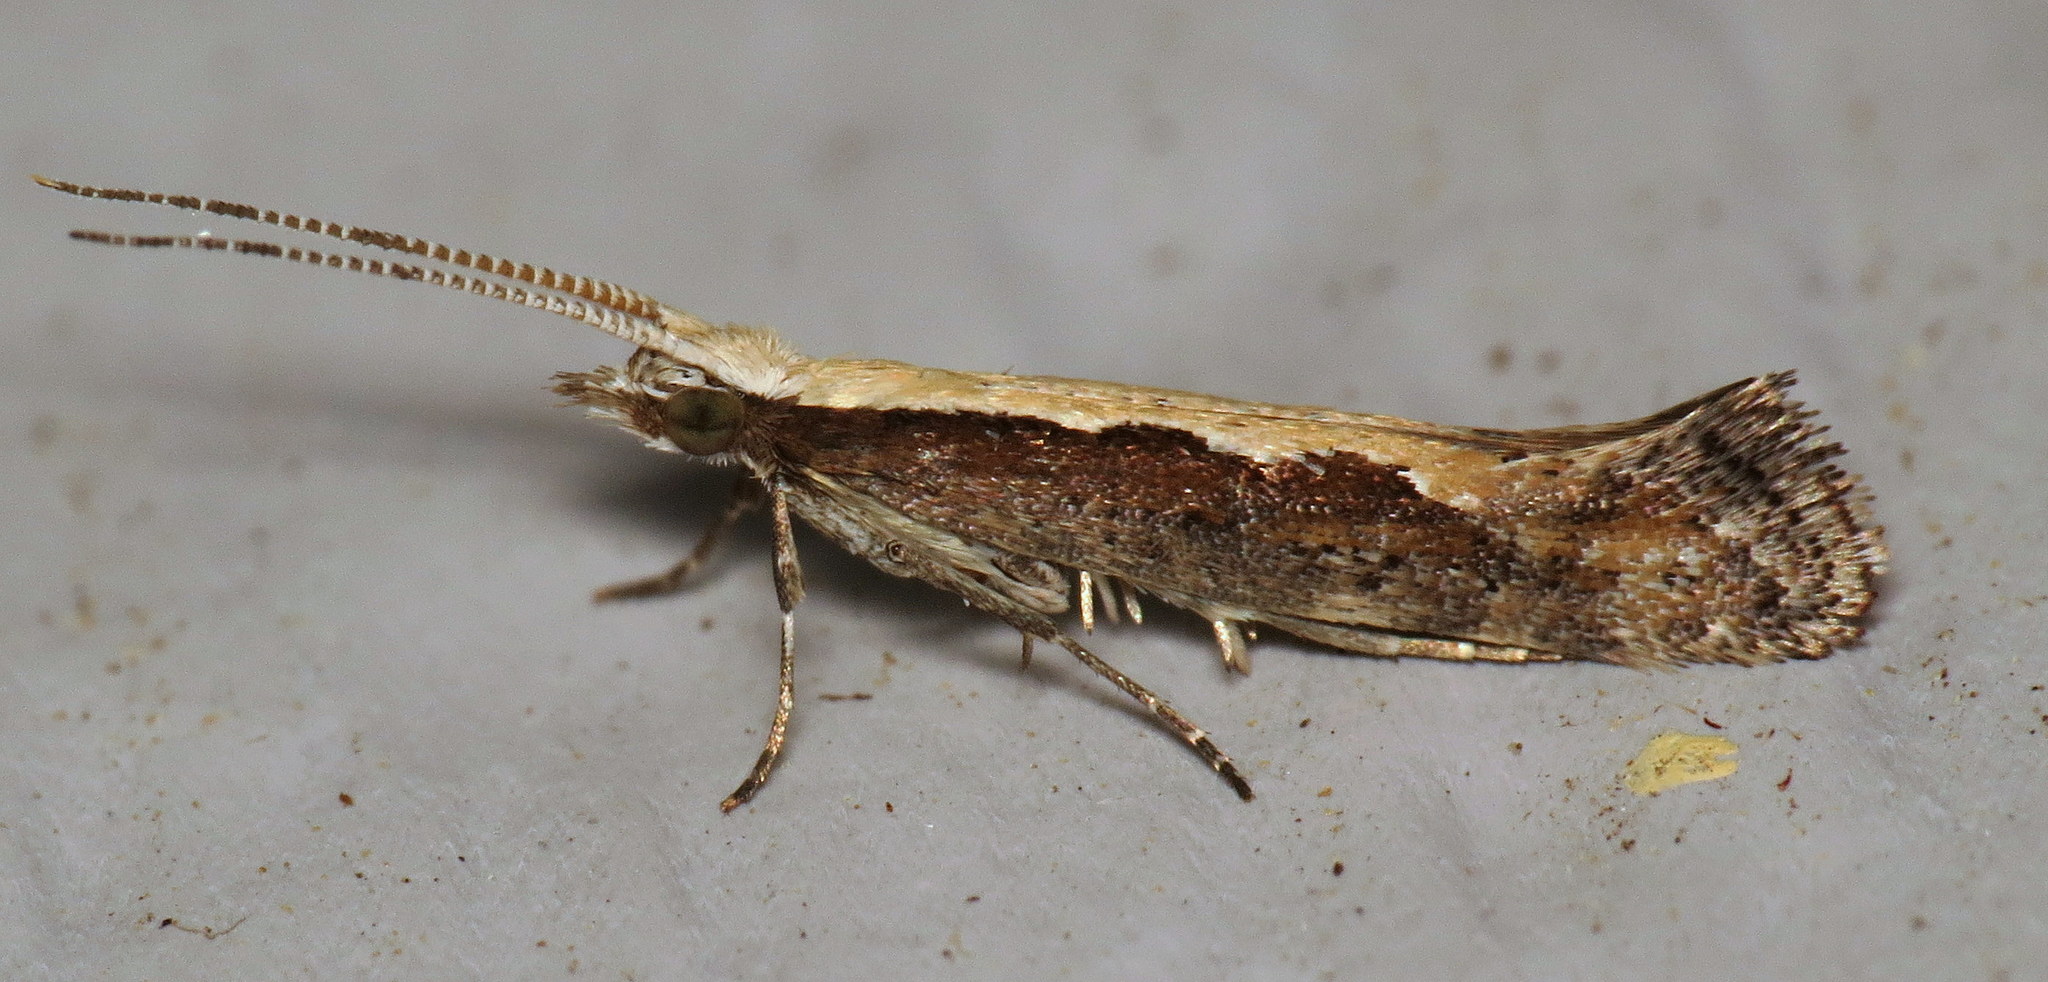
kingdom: Animalia
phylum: Arthropoda
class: Insecta
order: Lepidoptera
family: Plutellidae
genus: Plutella
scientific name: Plutella xylostella
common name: Diamond-back moth
